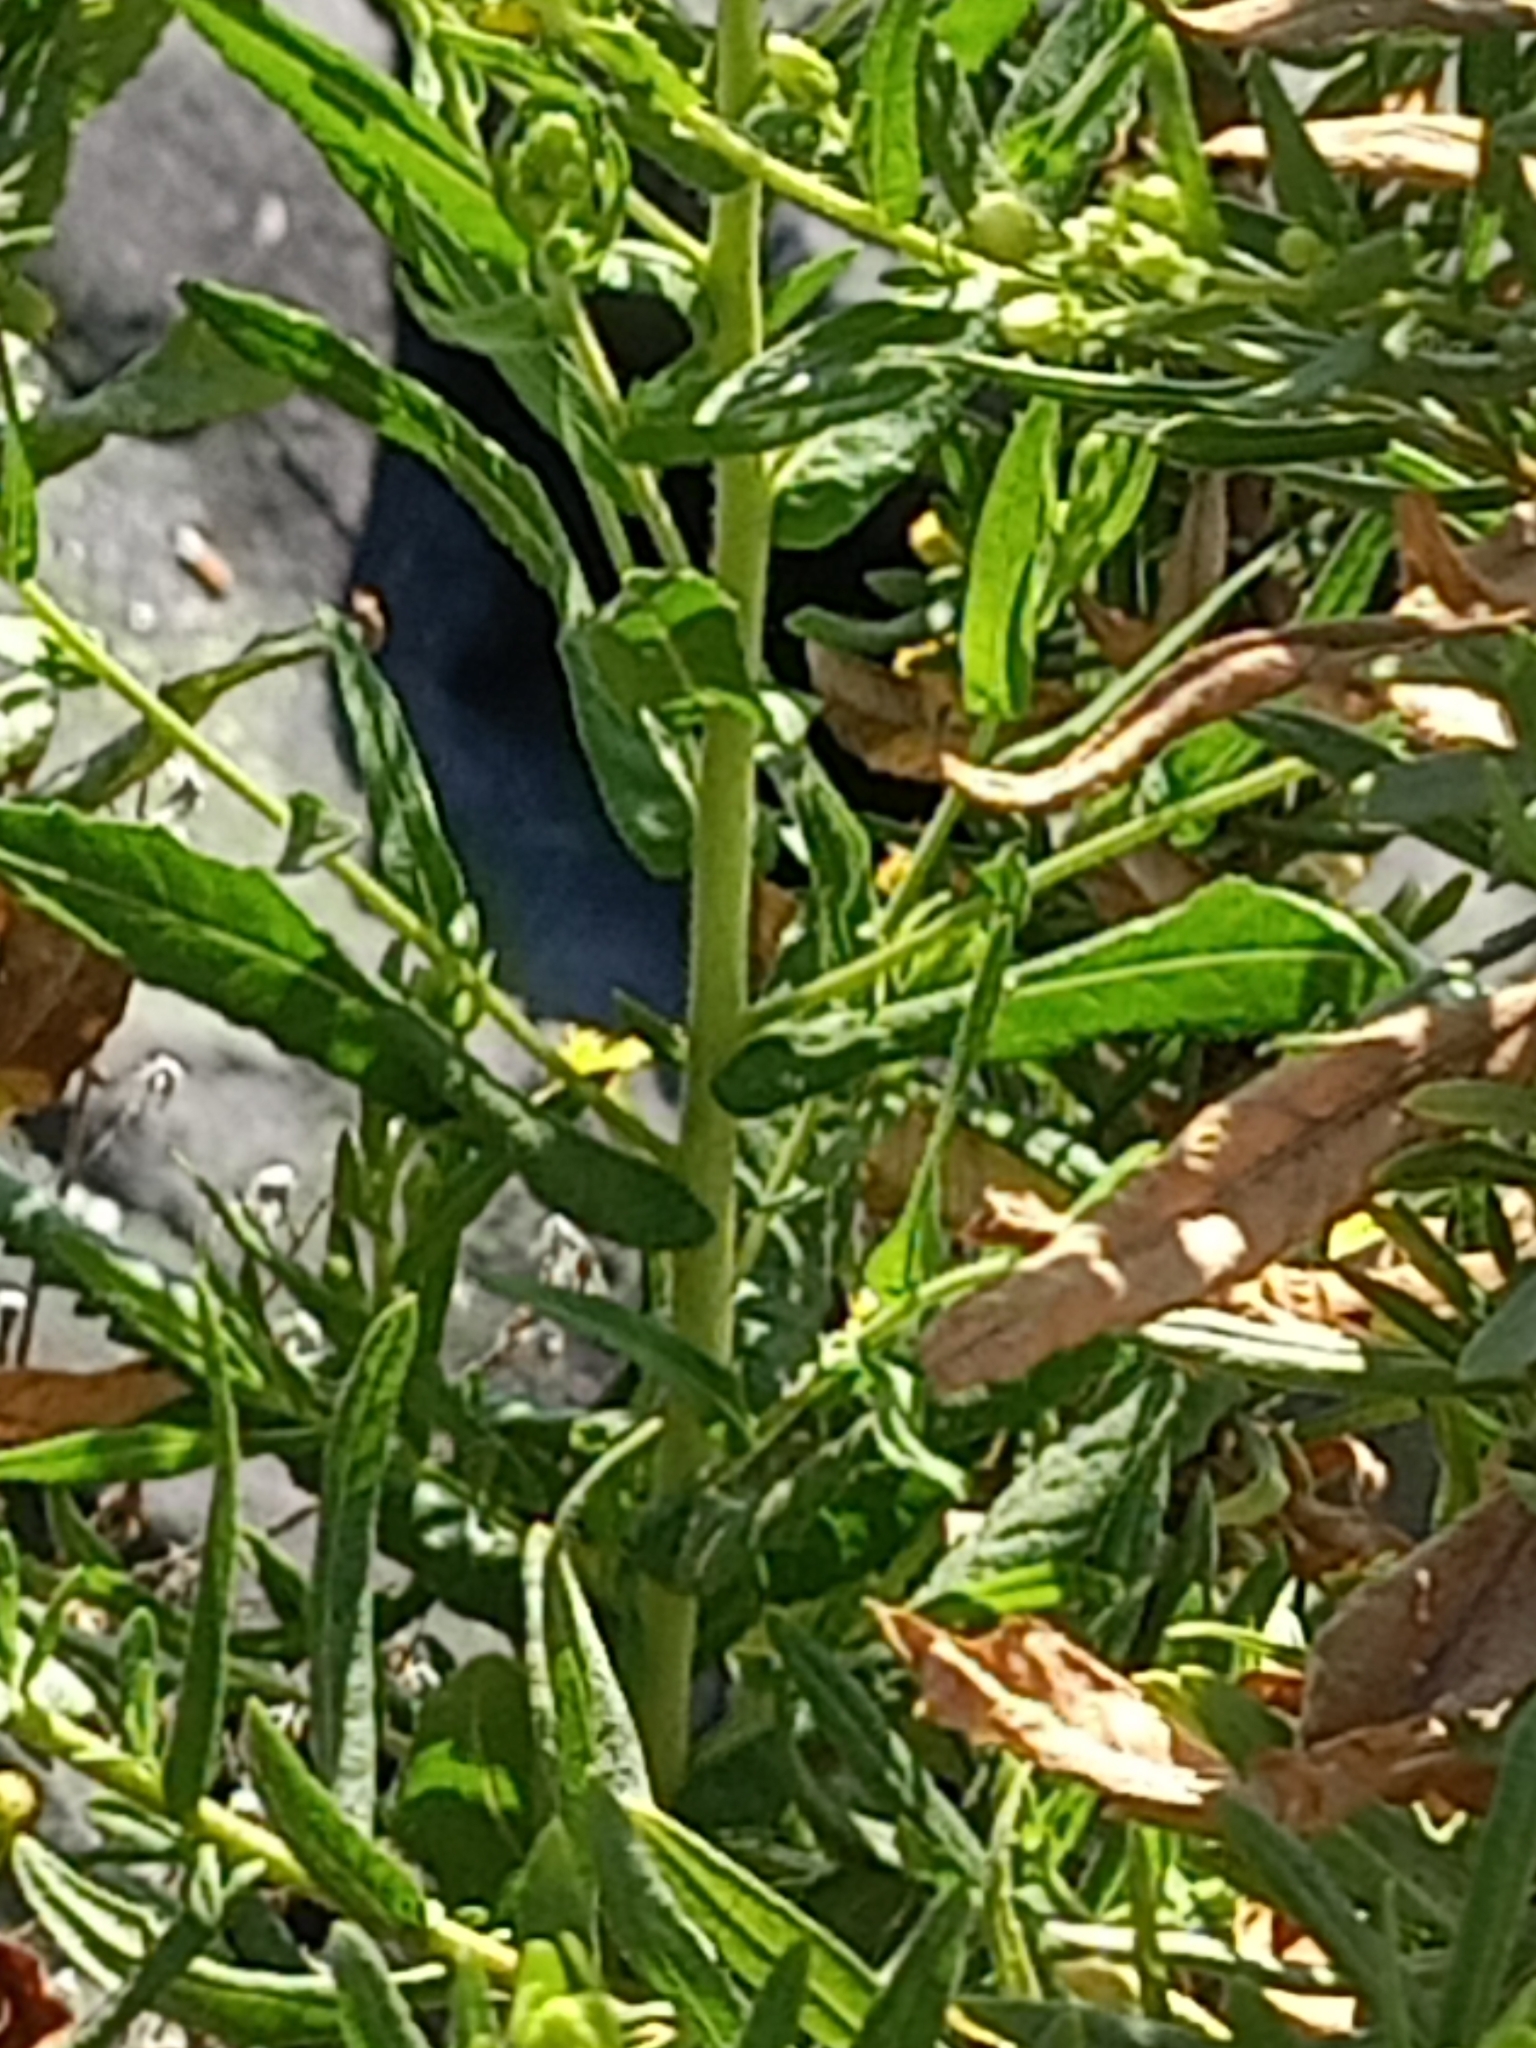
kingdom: Plantae
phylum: Tracheophyta
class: Magnoliopsida
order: Asterales
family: Asteraceae
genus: Dittrichia
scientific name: Dittrichia viscosa
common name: Woody fleabane
